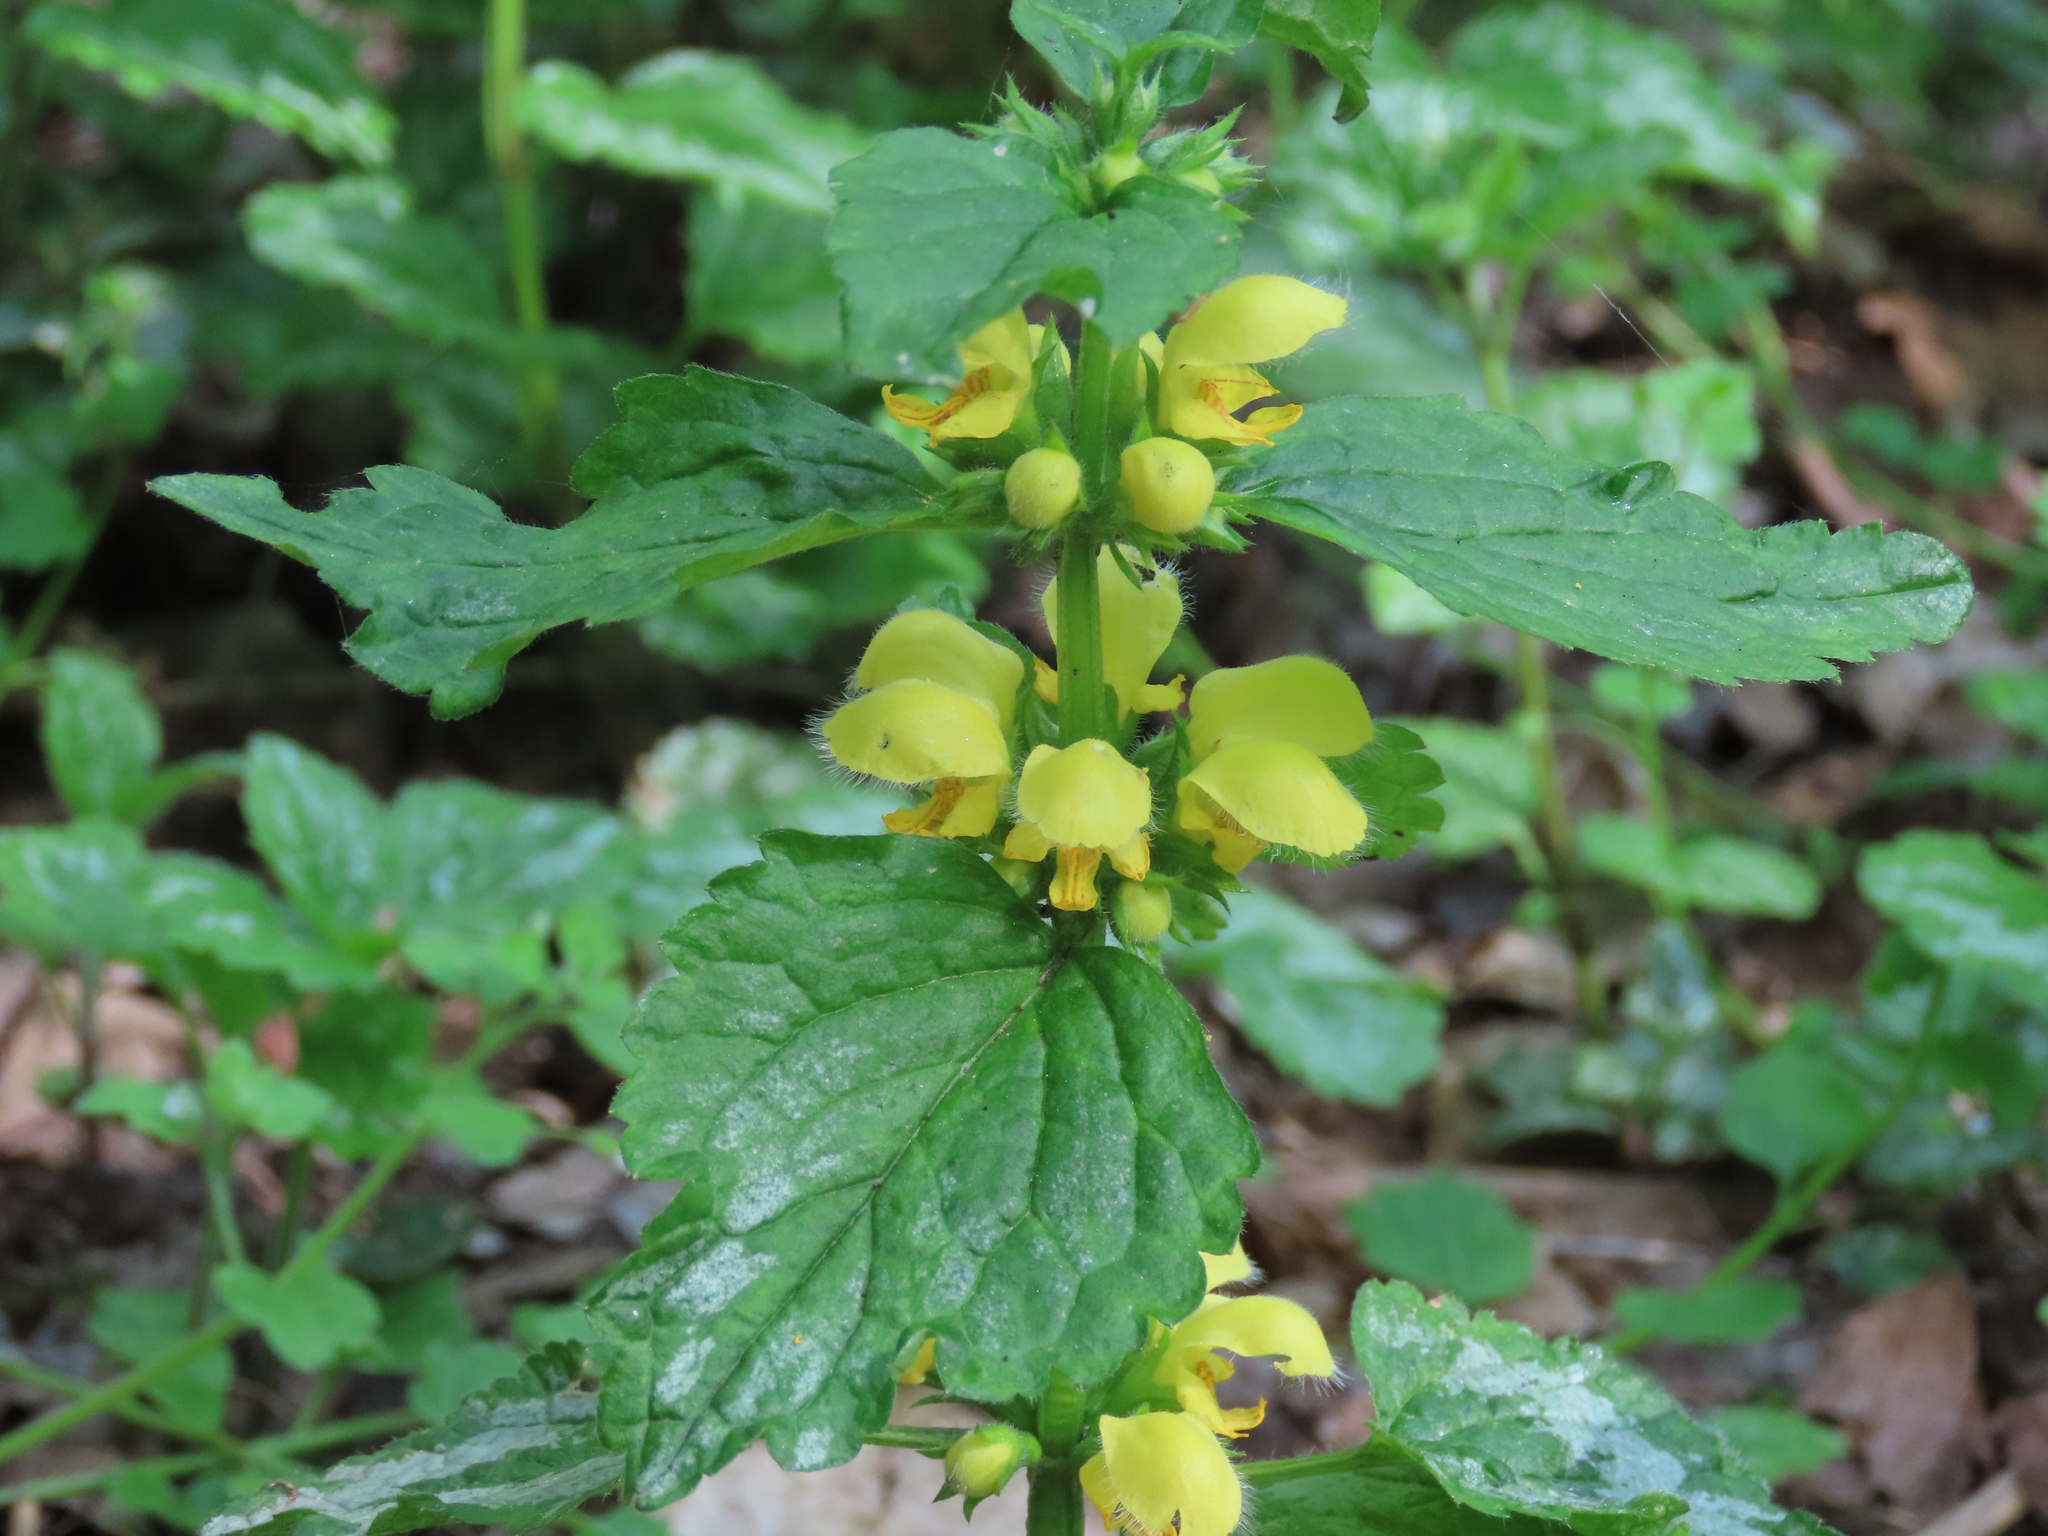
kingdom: Plantae
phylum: Tracheophyta
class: Magnoliopsida
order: Lamiales
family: Lamiaceae
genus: Lamium
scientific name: Lamium galeobdolon
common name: Yellow archangel
